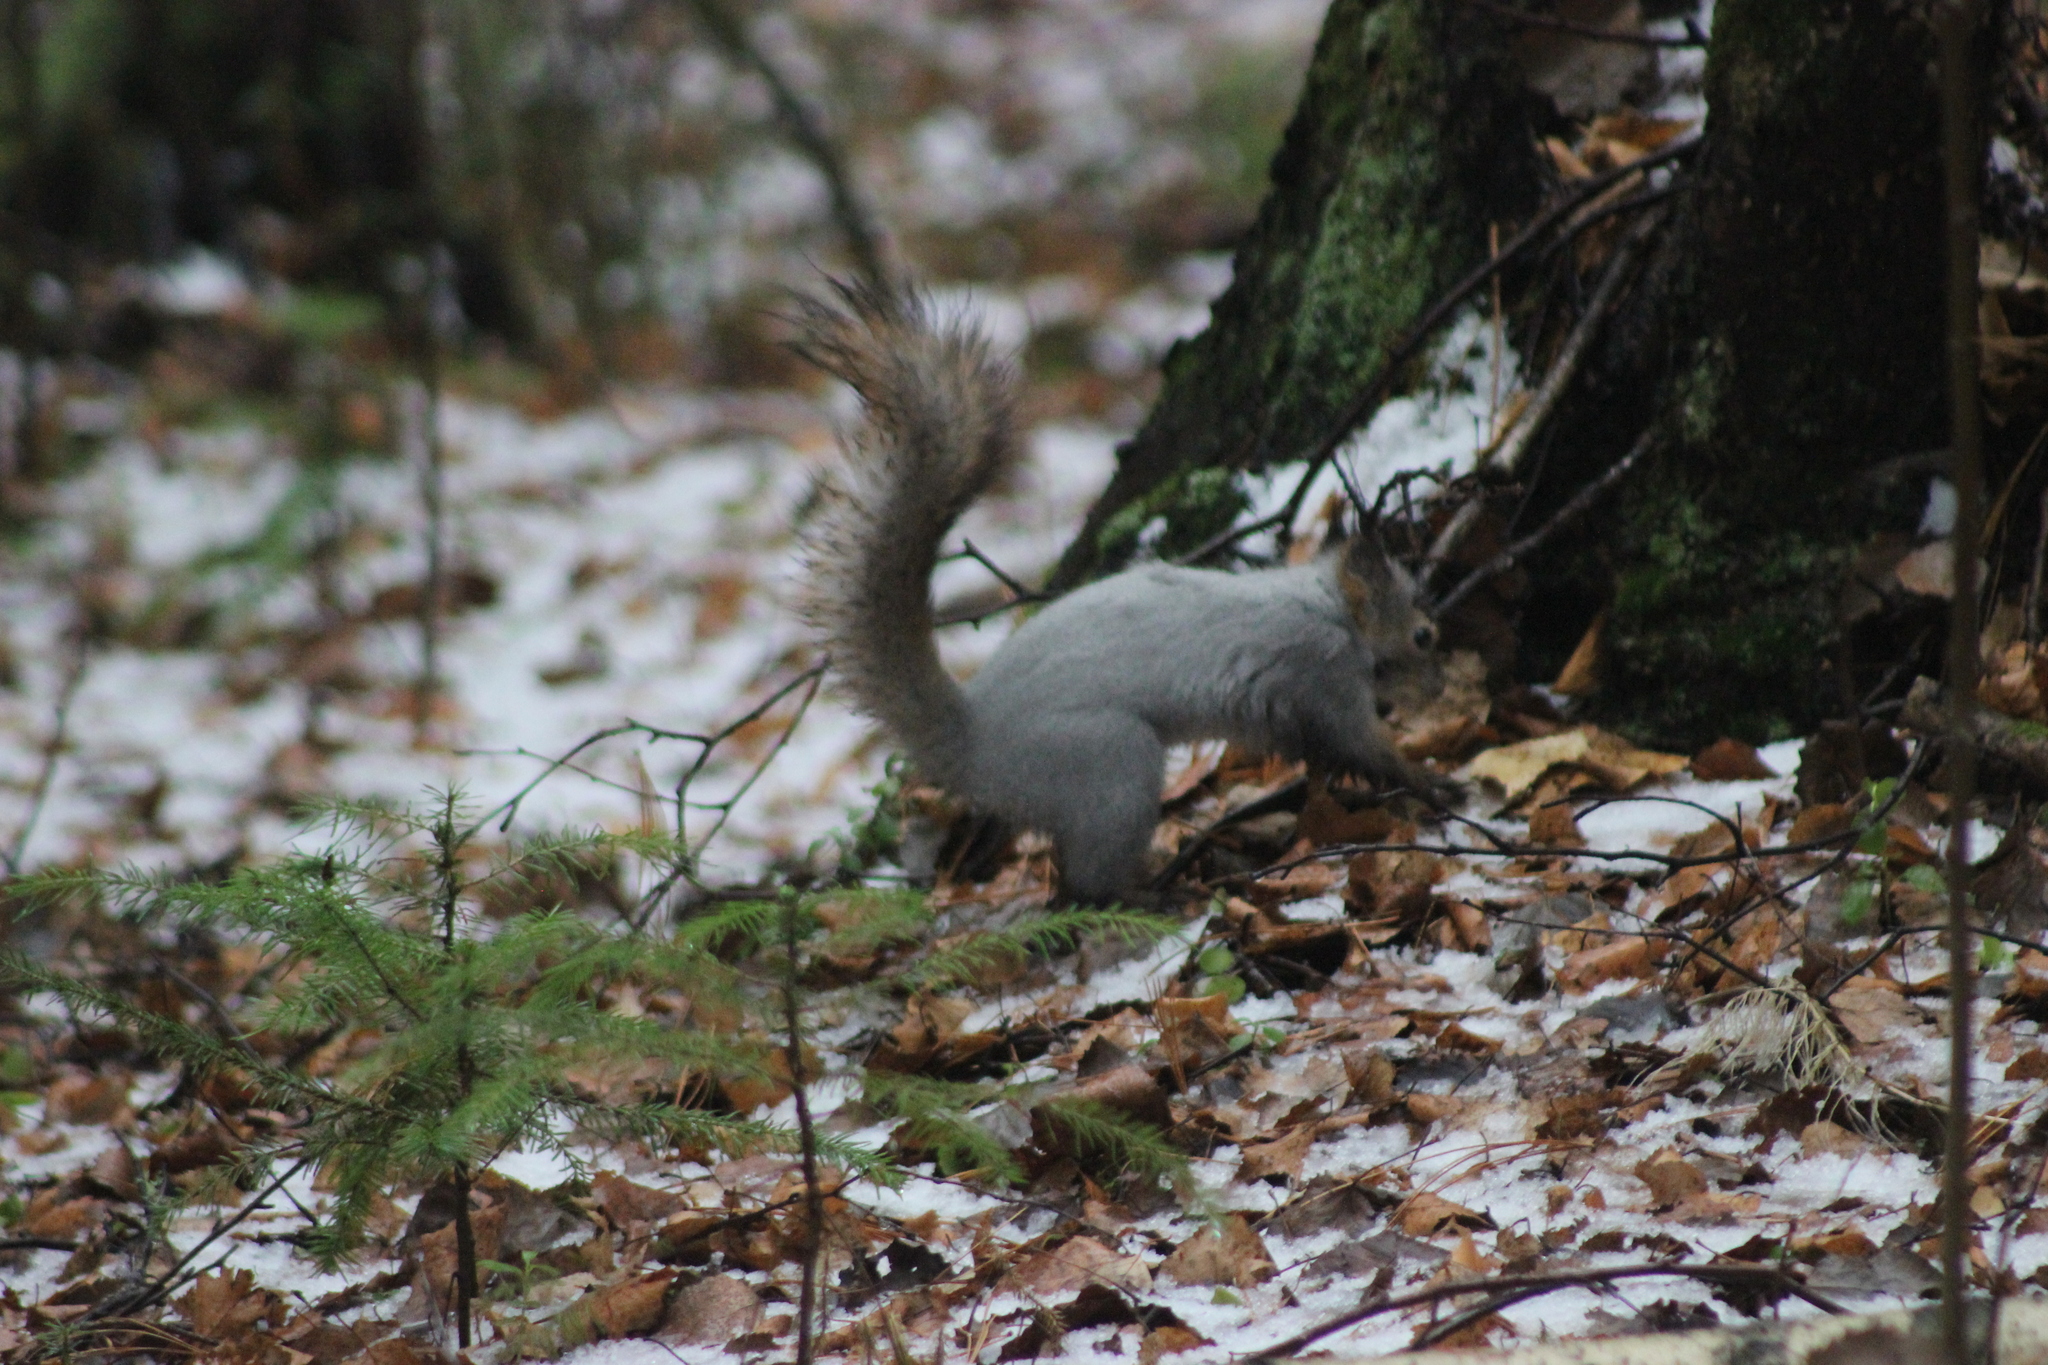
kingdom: Animalia
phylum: Chordata
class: Mammalia
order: Rodentia
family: Sciuridae
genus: Sciurus
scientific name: Sciurus vulgaris
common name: Eurasian red squirrel
